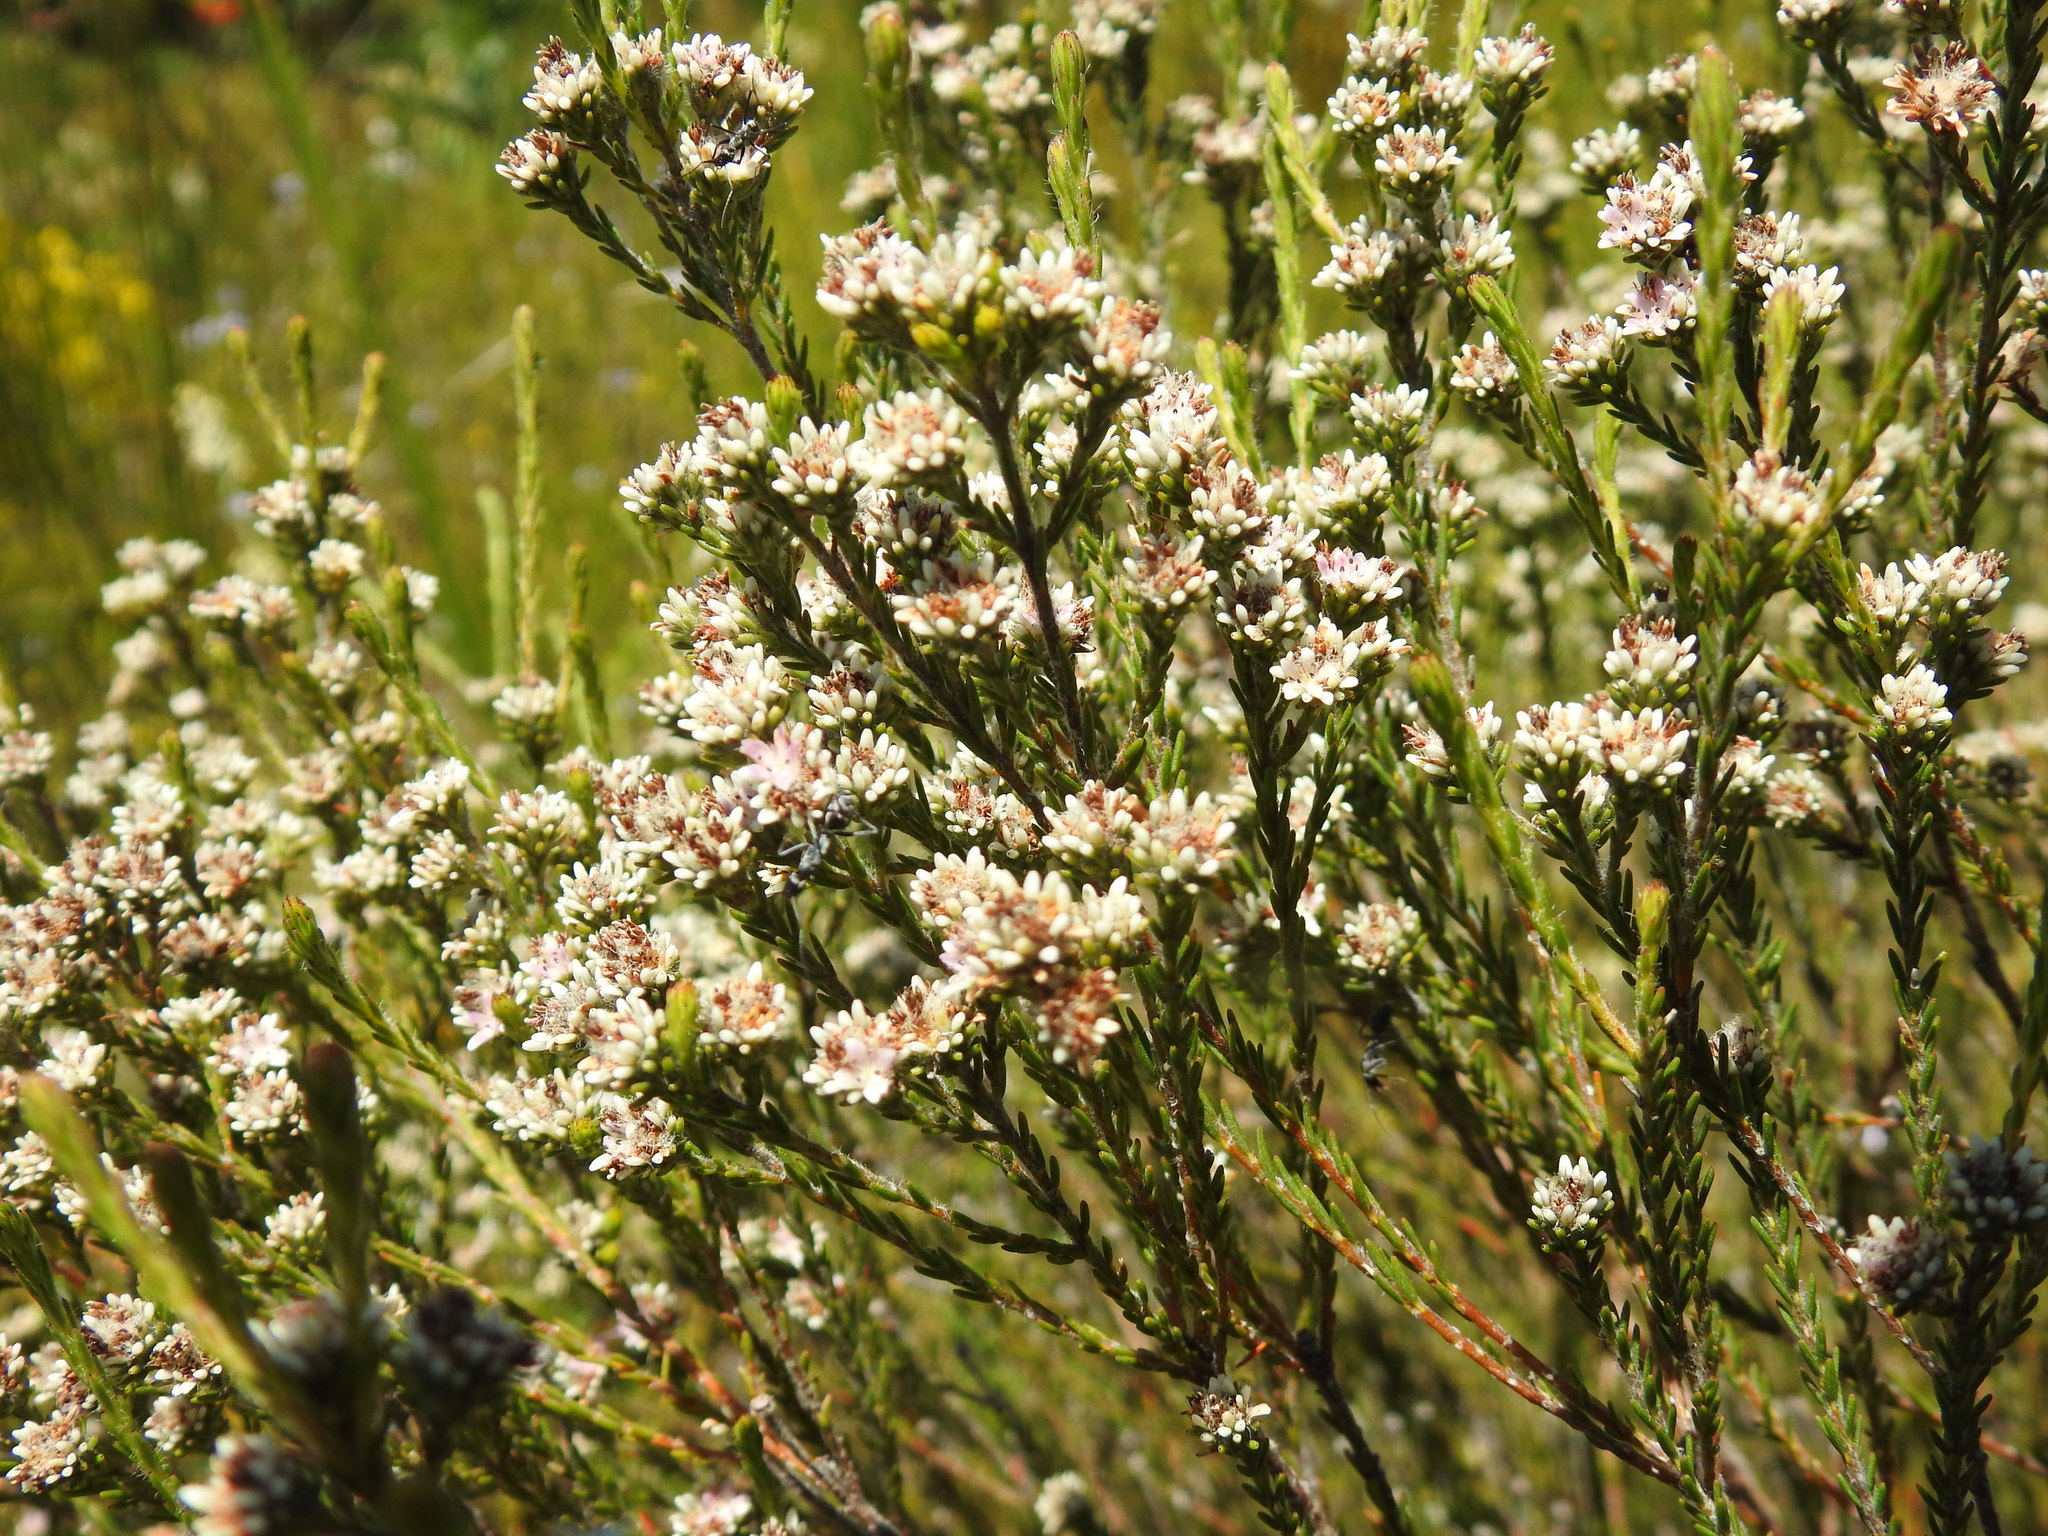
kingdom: Plantae
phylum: Tracheophyta
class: Magnoliopsida
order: Bruniales
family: Bruniaceae
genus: Staavia
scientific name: Staavia radiata
